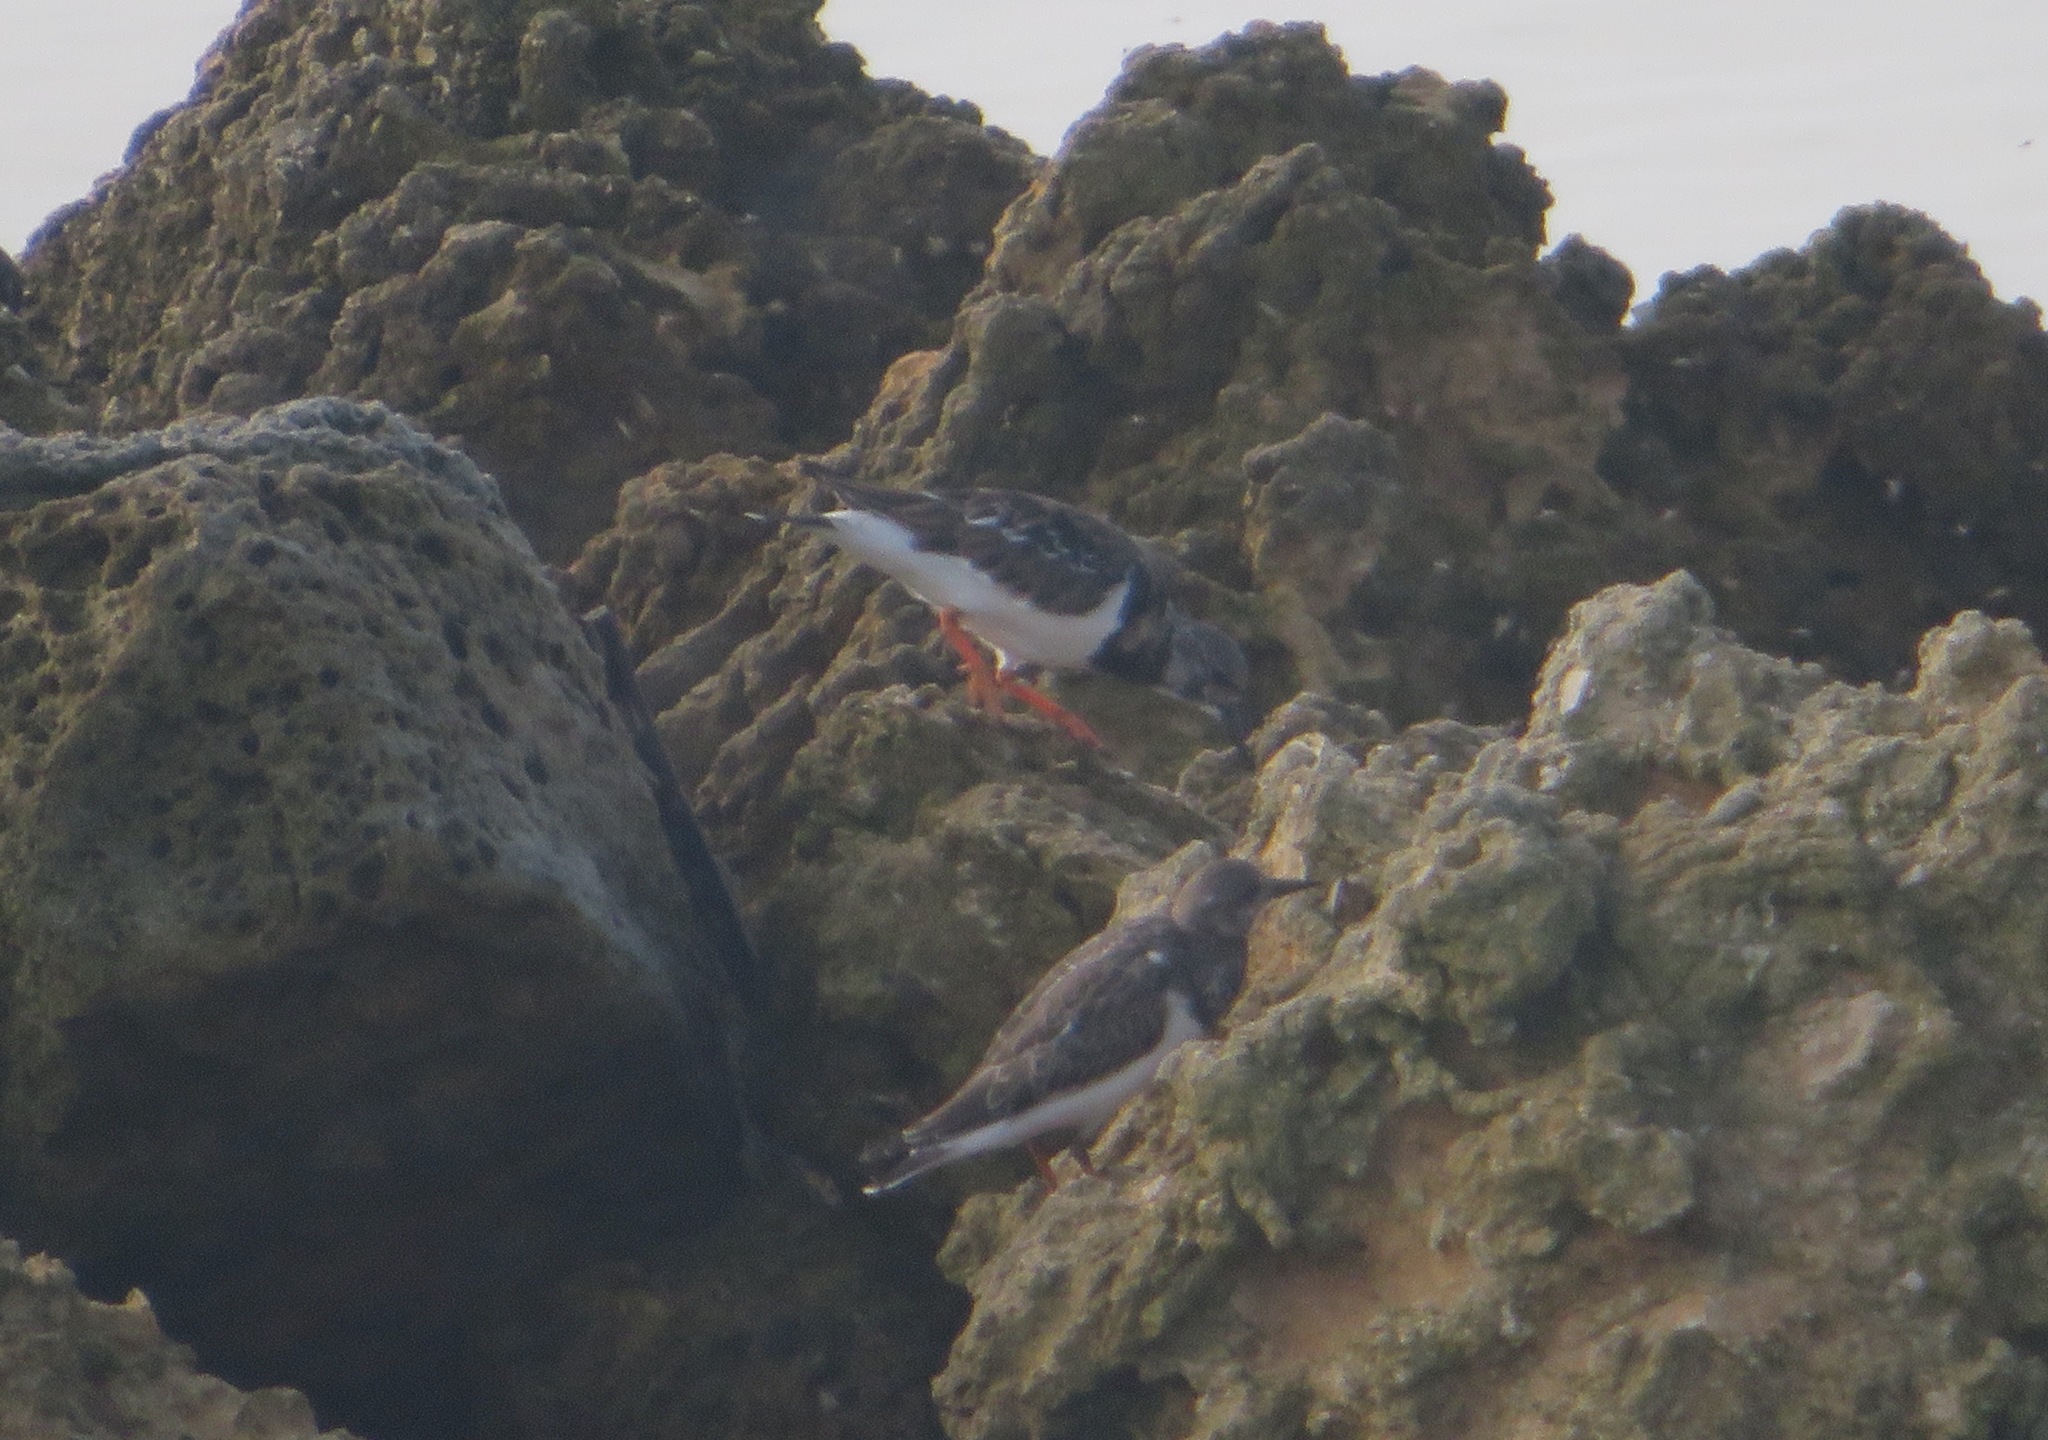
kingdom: Animalia
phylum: Chordata
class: Aves
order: Charadriiformes
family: Scolopacidae
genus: Arenaria
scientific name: Arenaria interpres
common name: Ruddy turnstone
